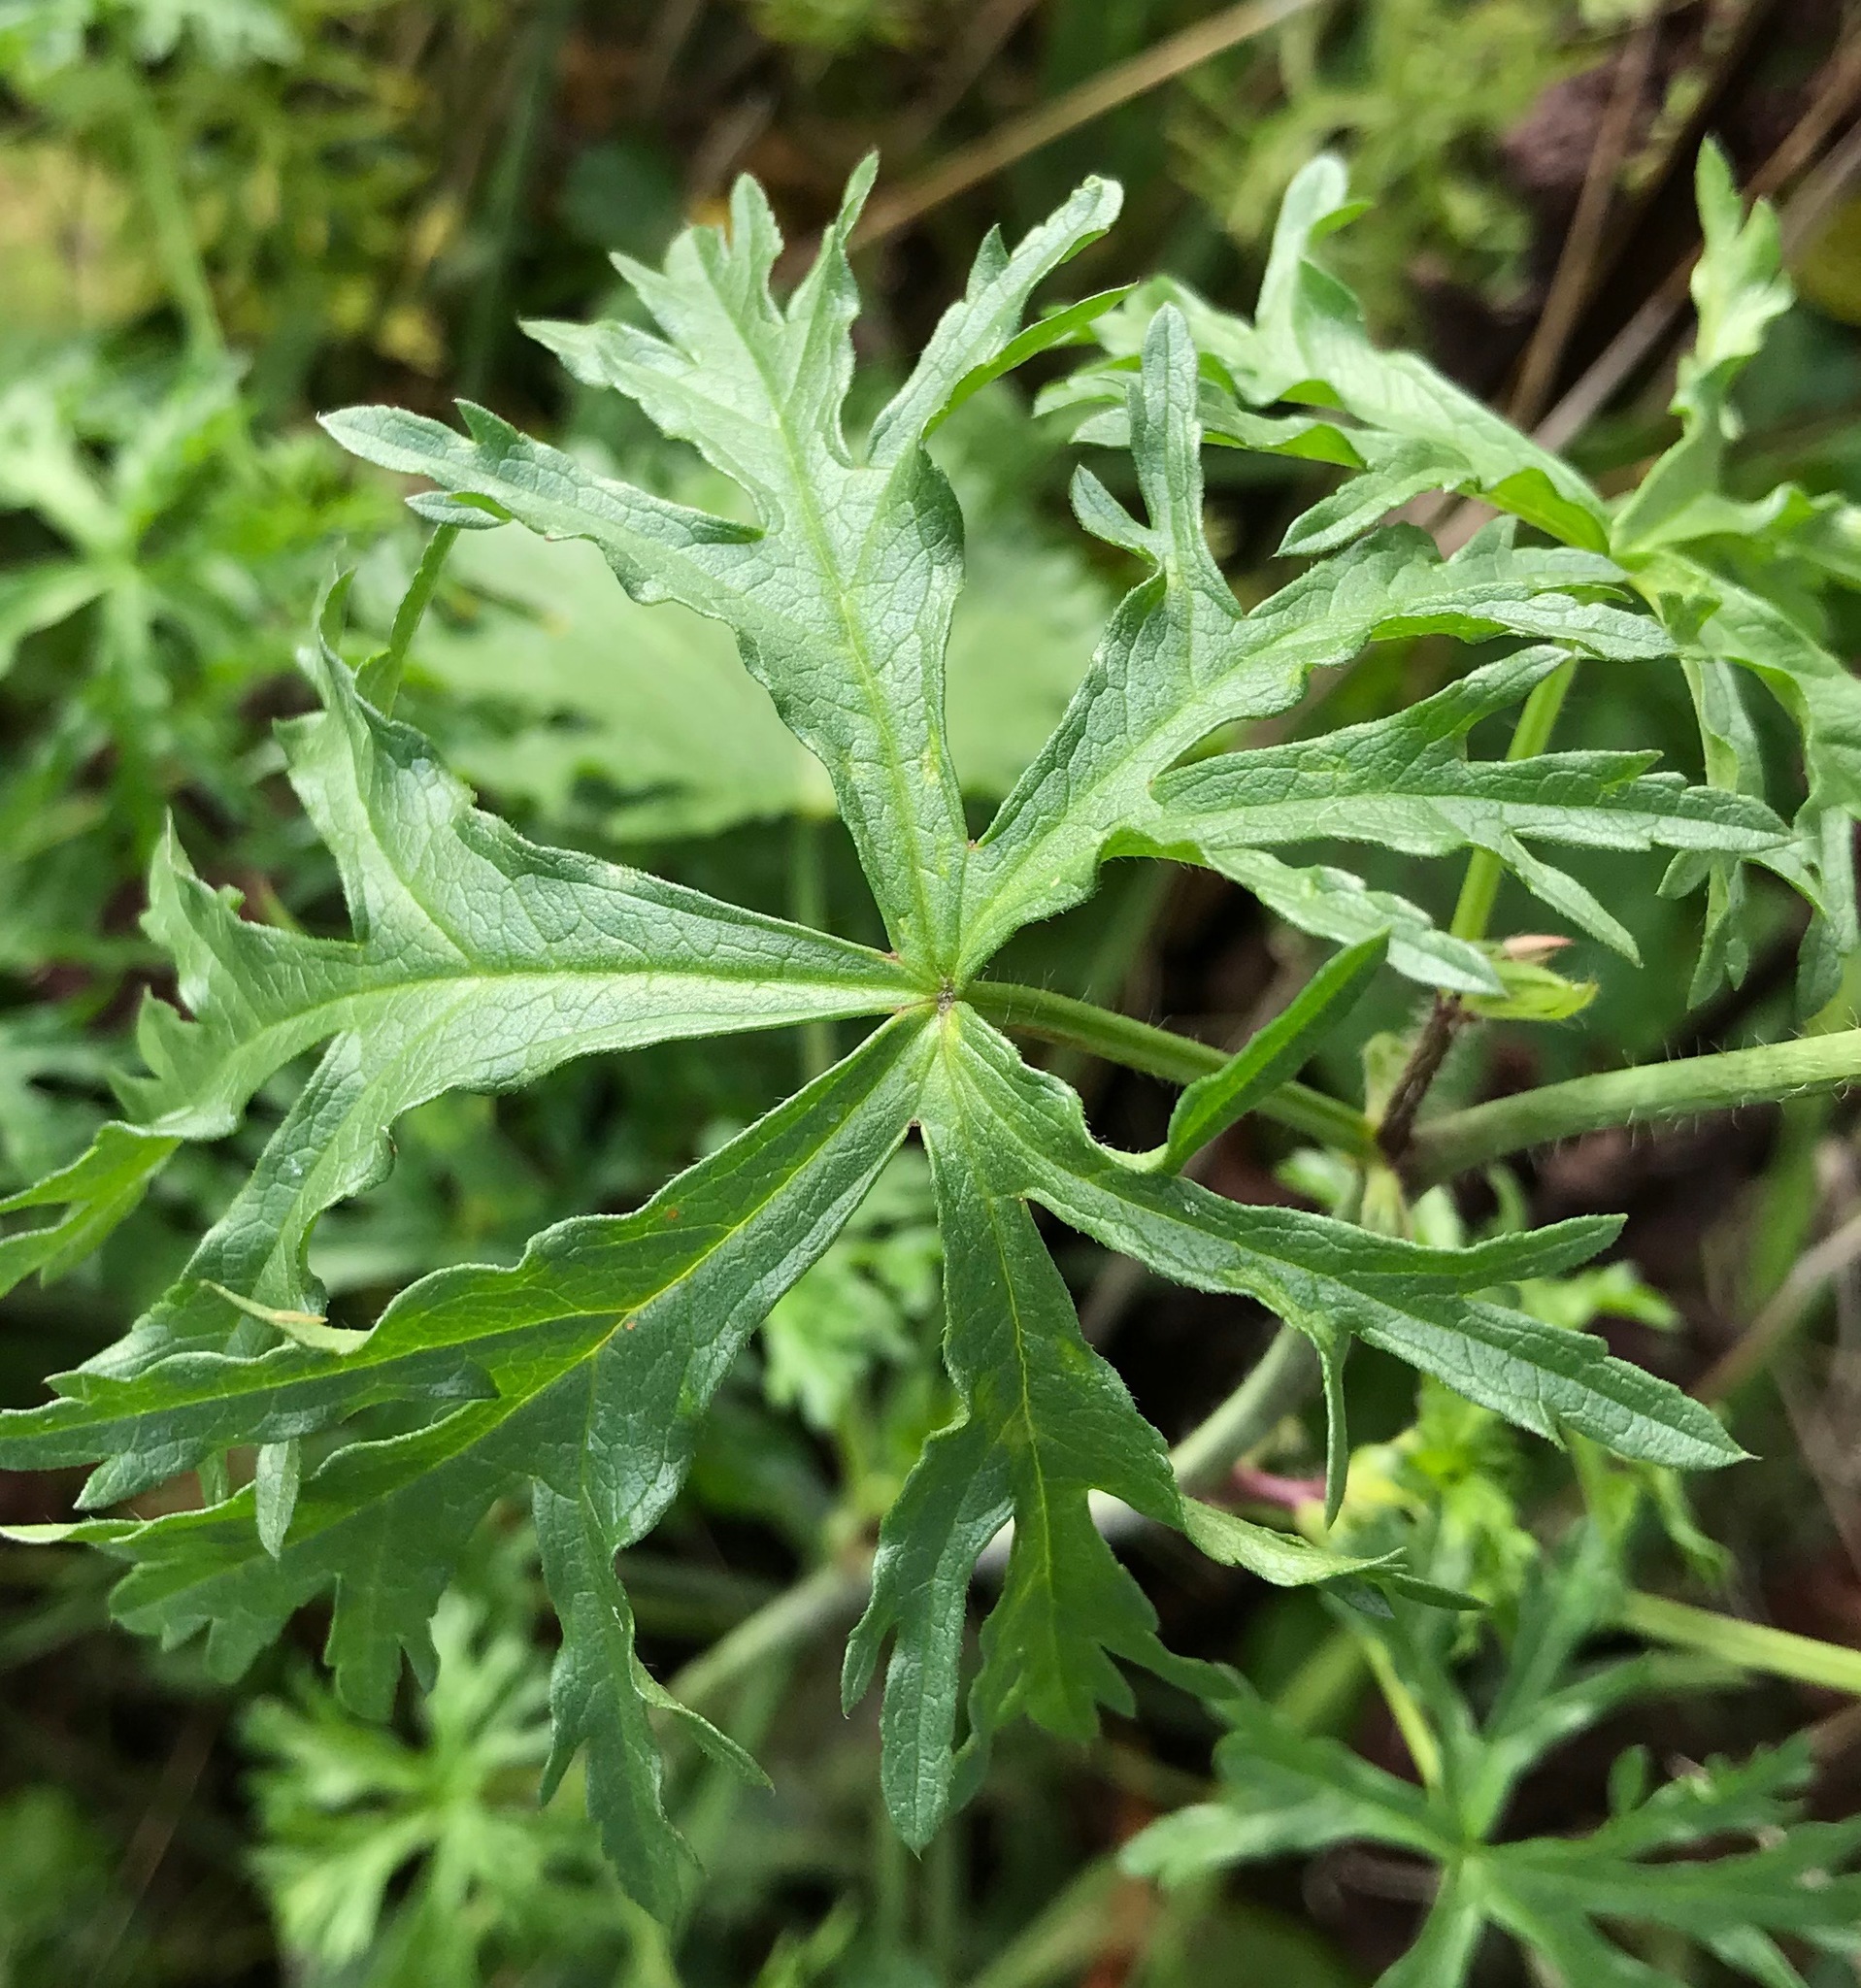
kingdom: Plantae
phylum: Tracheophyta
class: Magnoliopsida
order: Malvales
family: Malvaceae
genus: Malva
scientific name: Malva moschata
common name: Musk mallow
